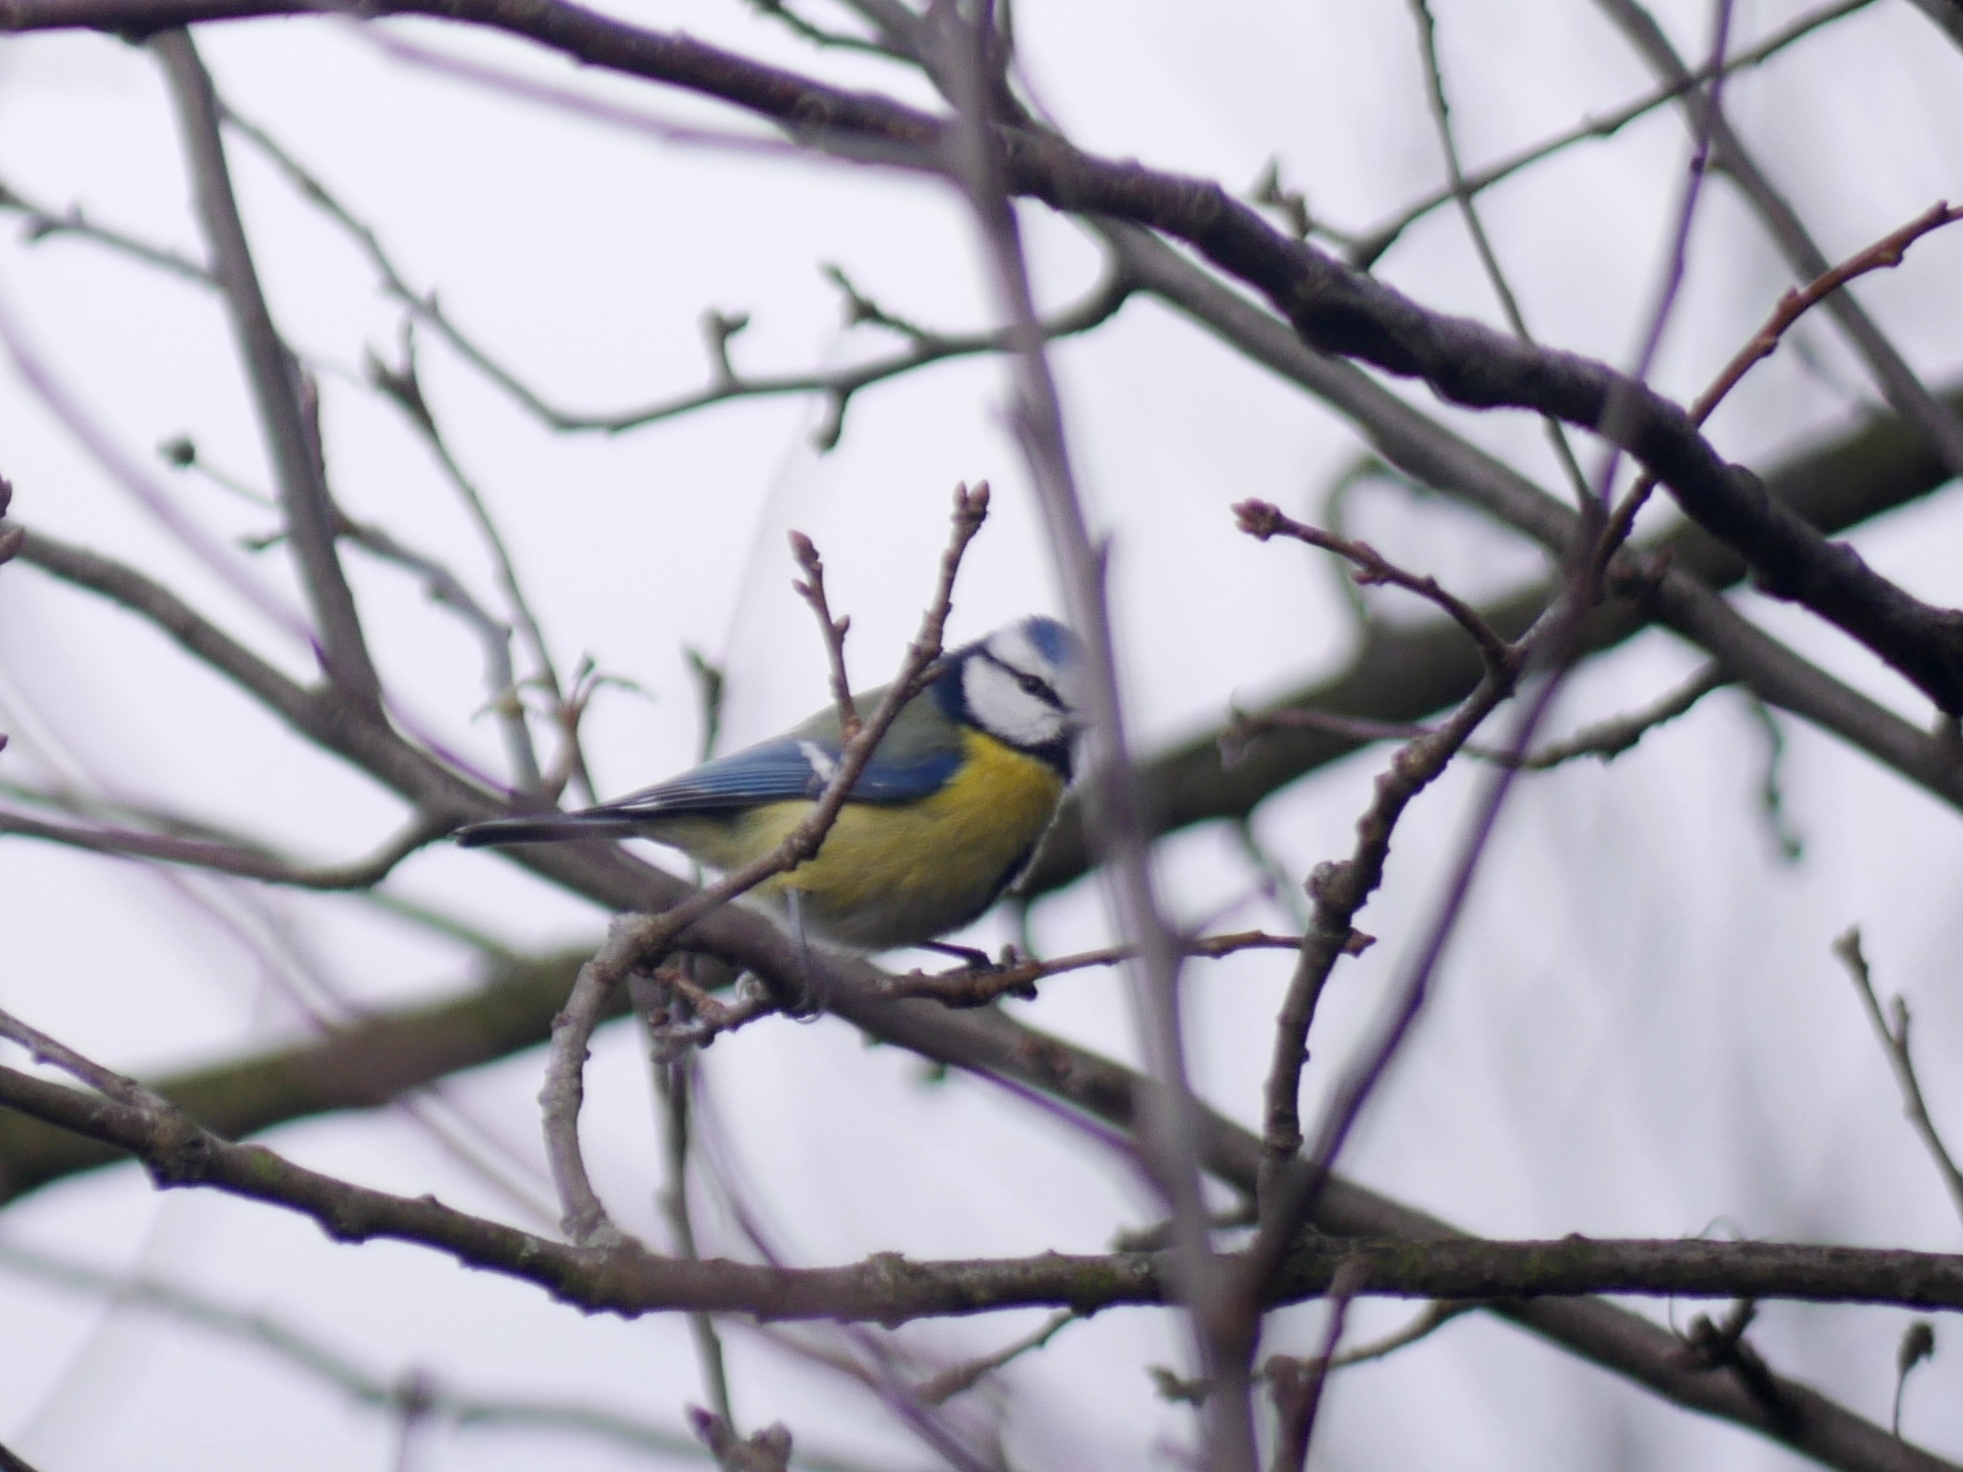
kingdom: Animalia
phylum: Chordata
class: Aves
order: Passeriformes
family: Paridae
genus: Cyanistes
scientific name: Cyanistes caeruleus
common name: Eurasian blue tit
